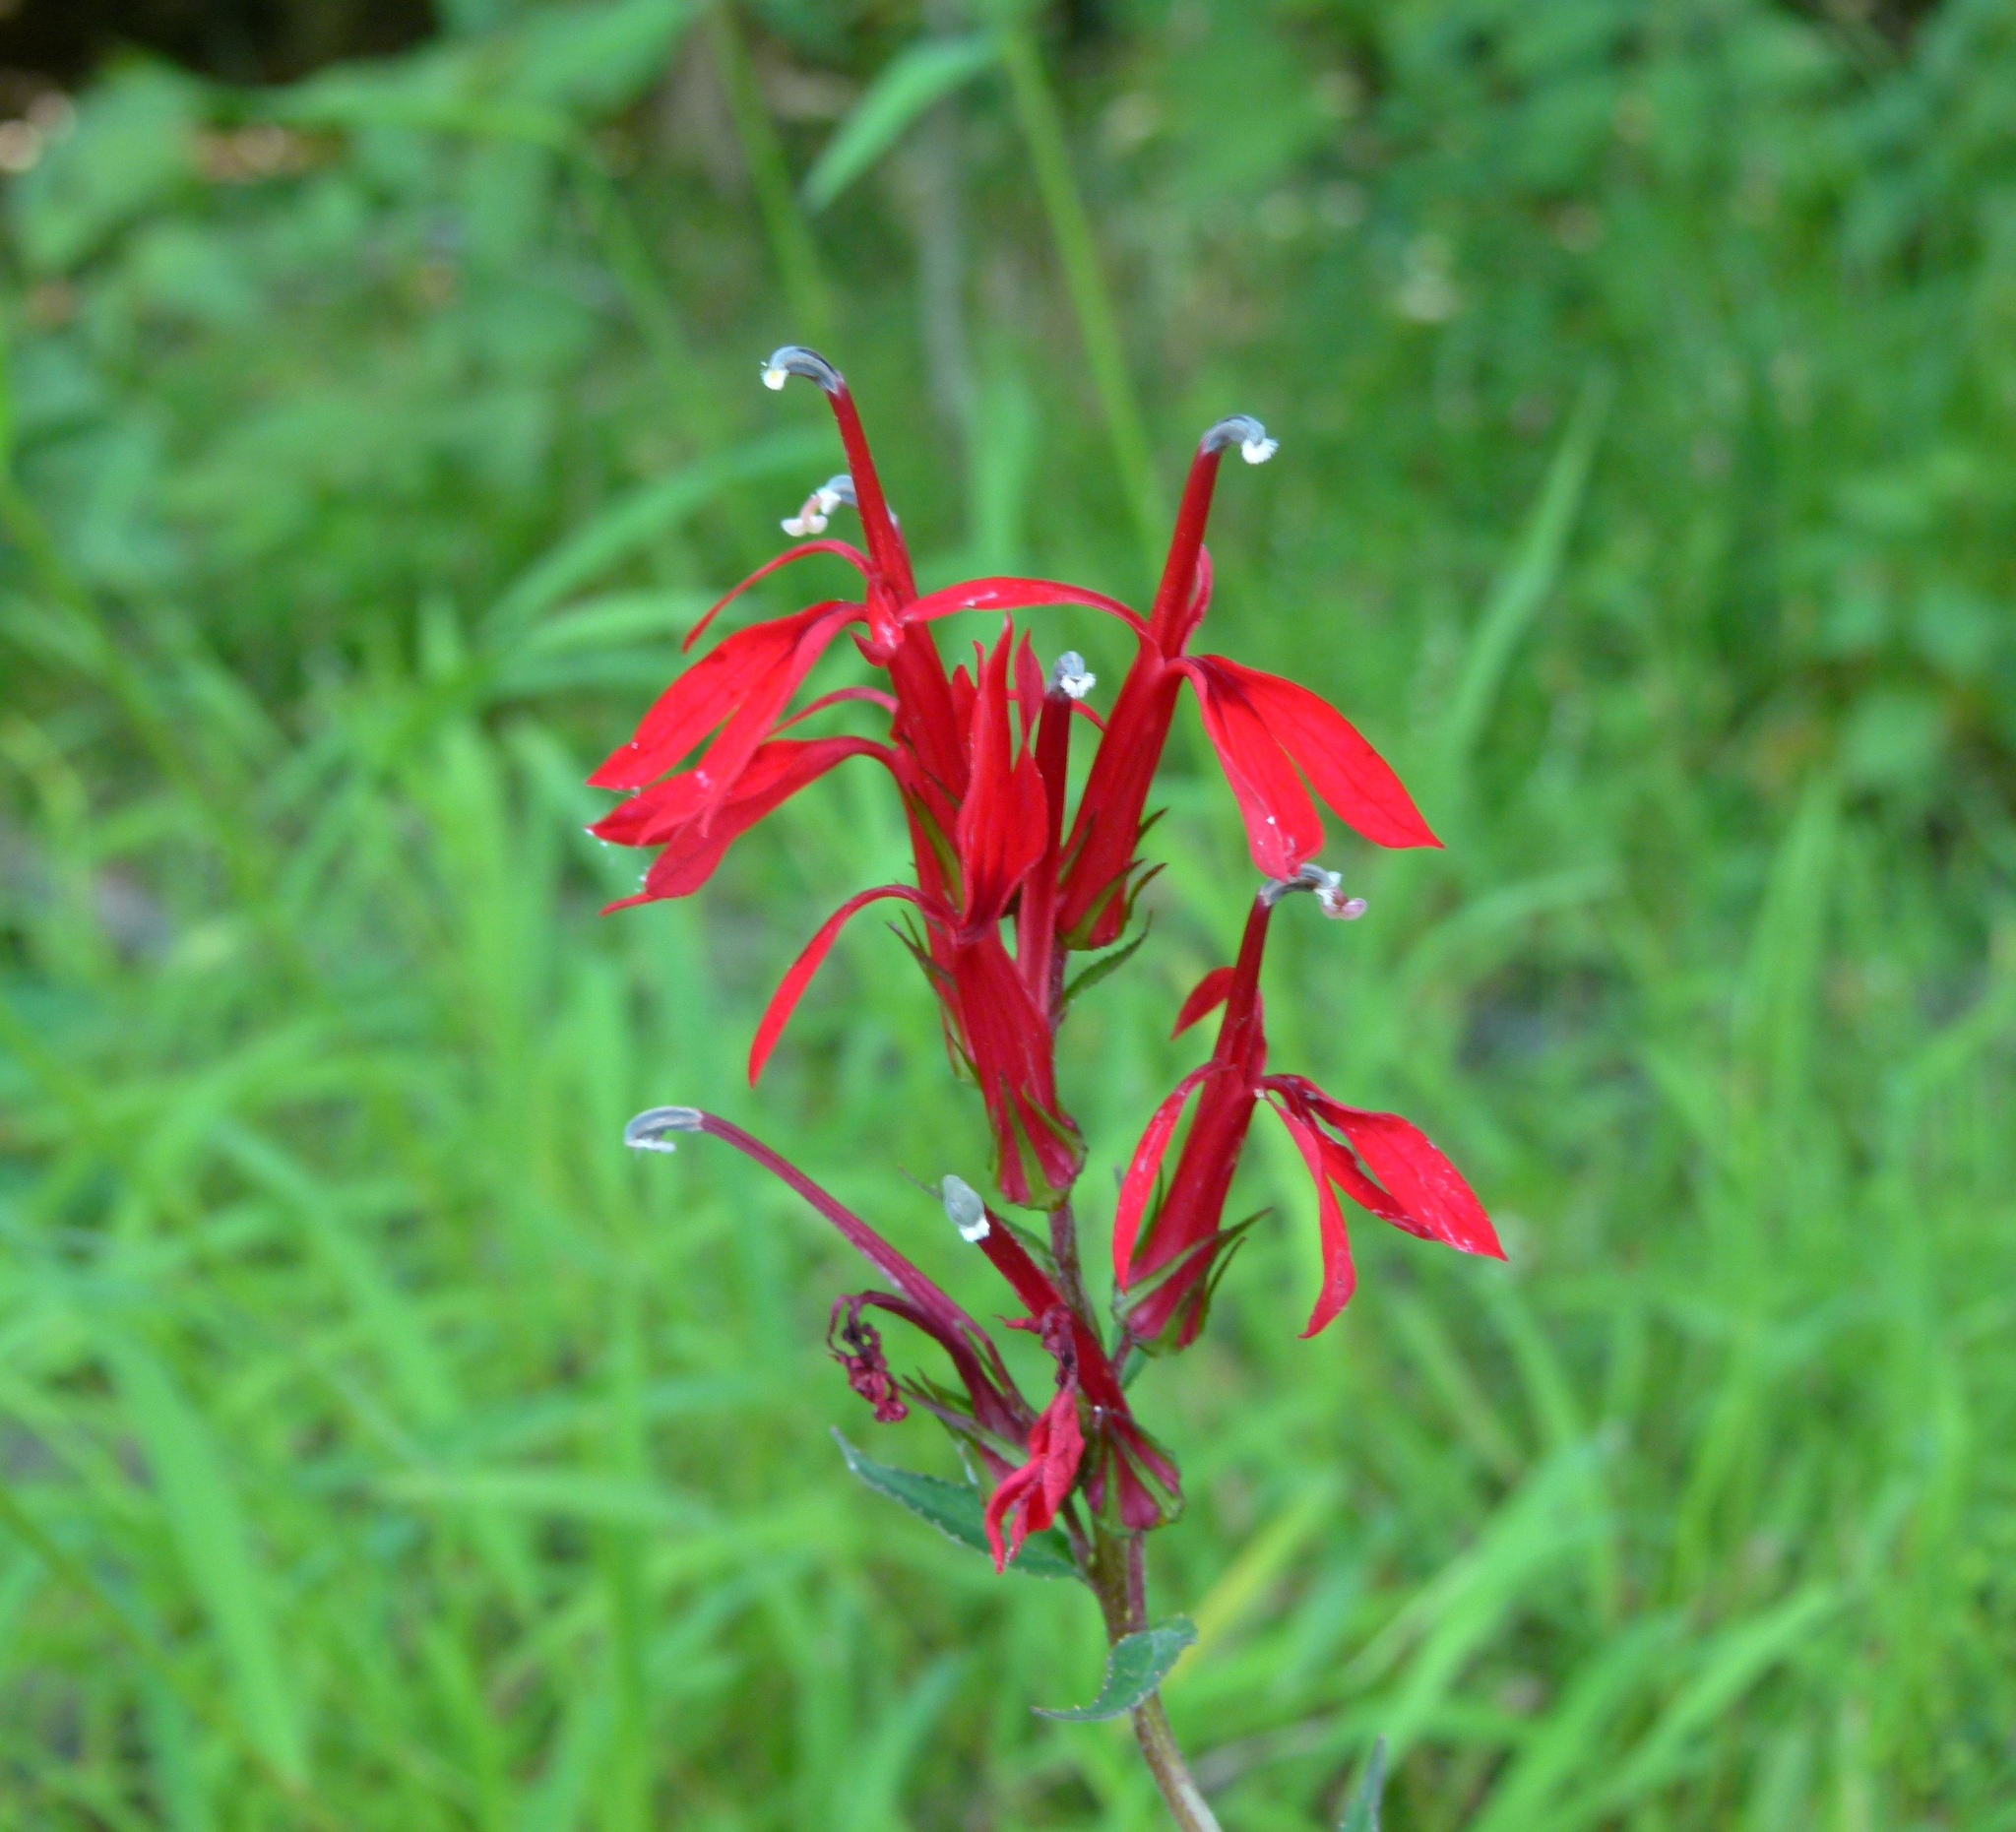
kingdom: Plantae
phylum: Tracheophyta
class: Magnoliopsida
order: Asterales
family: Campanulaceae
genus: Lobelia
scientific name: Lobelia cardinalis
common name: Cardinal flower
